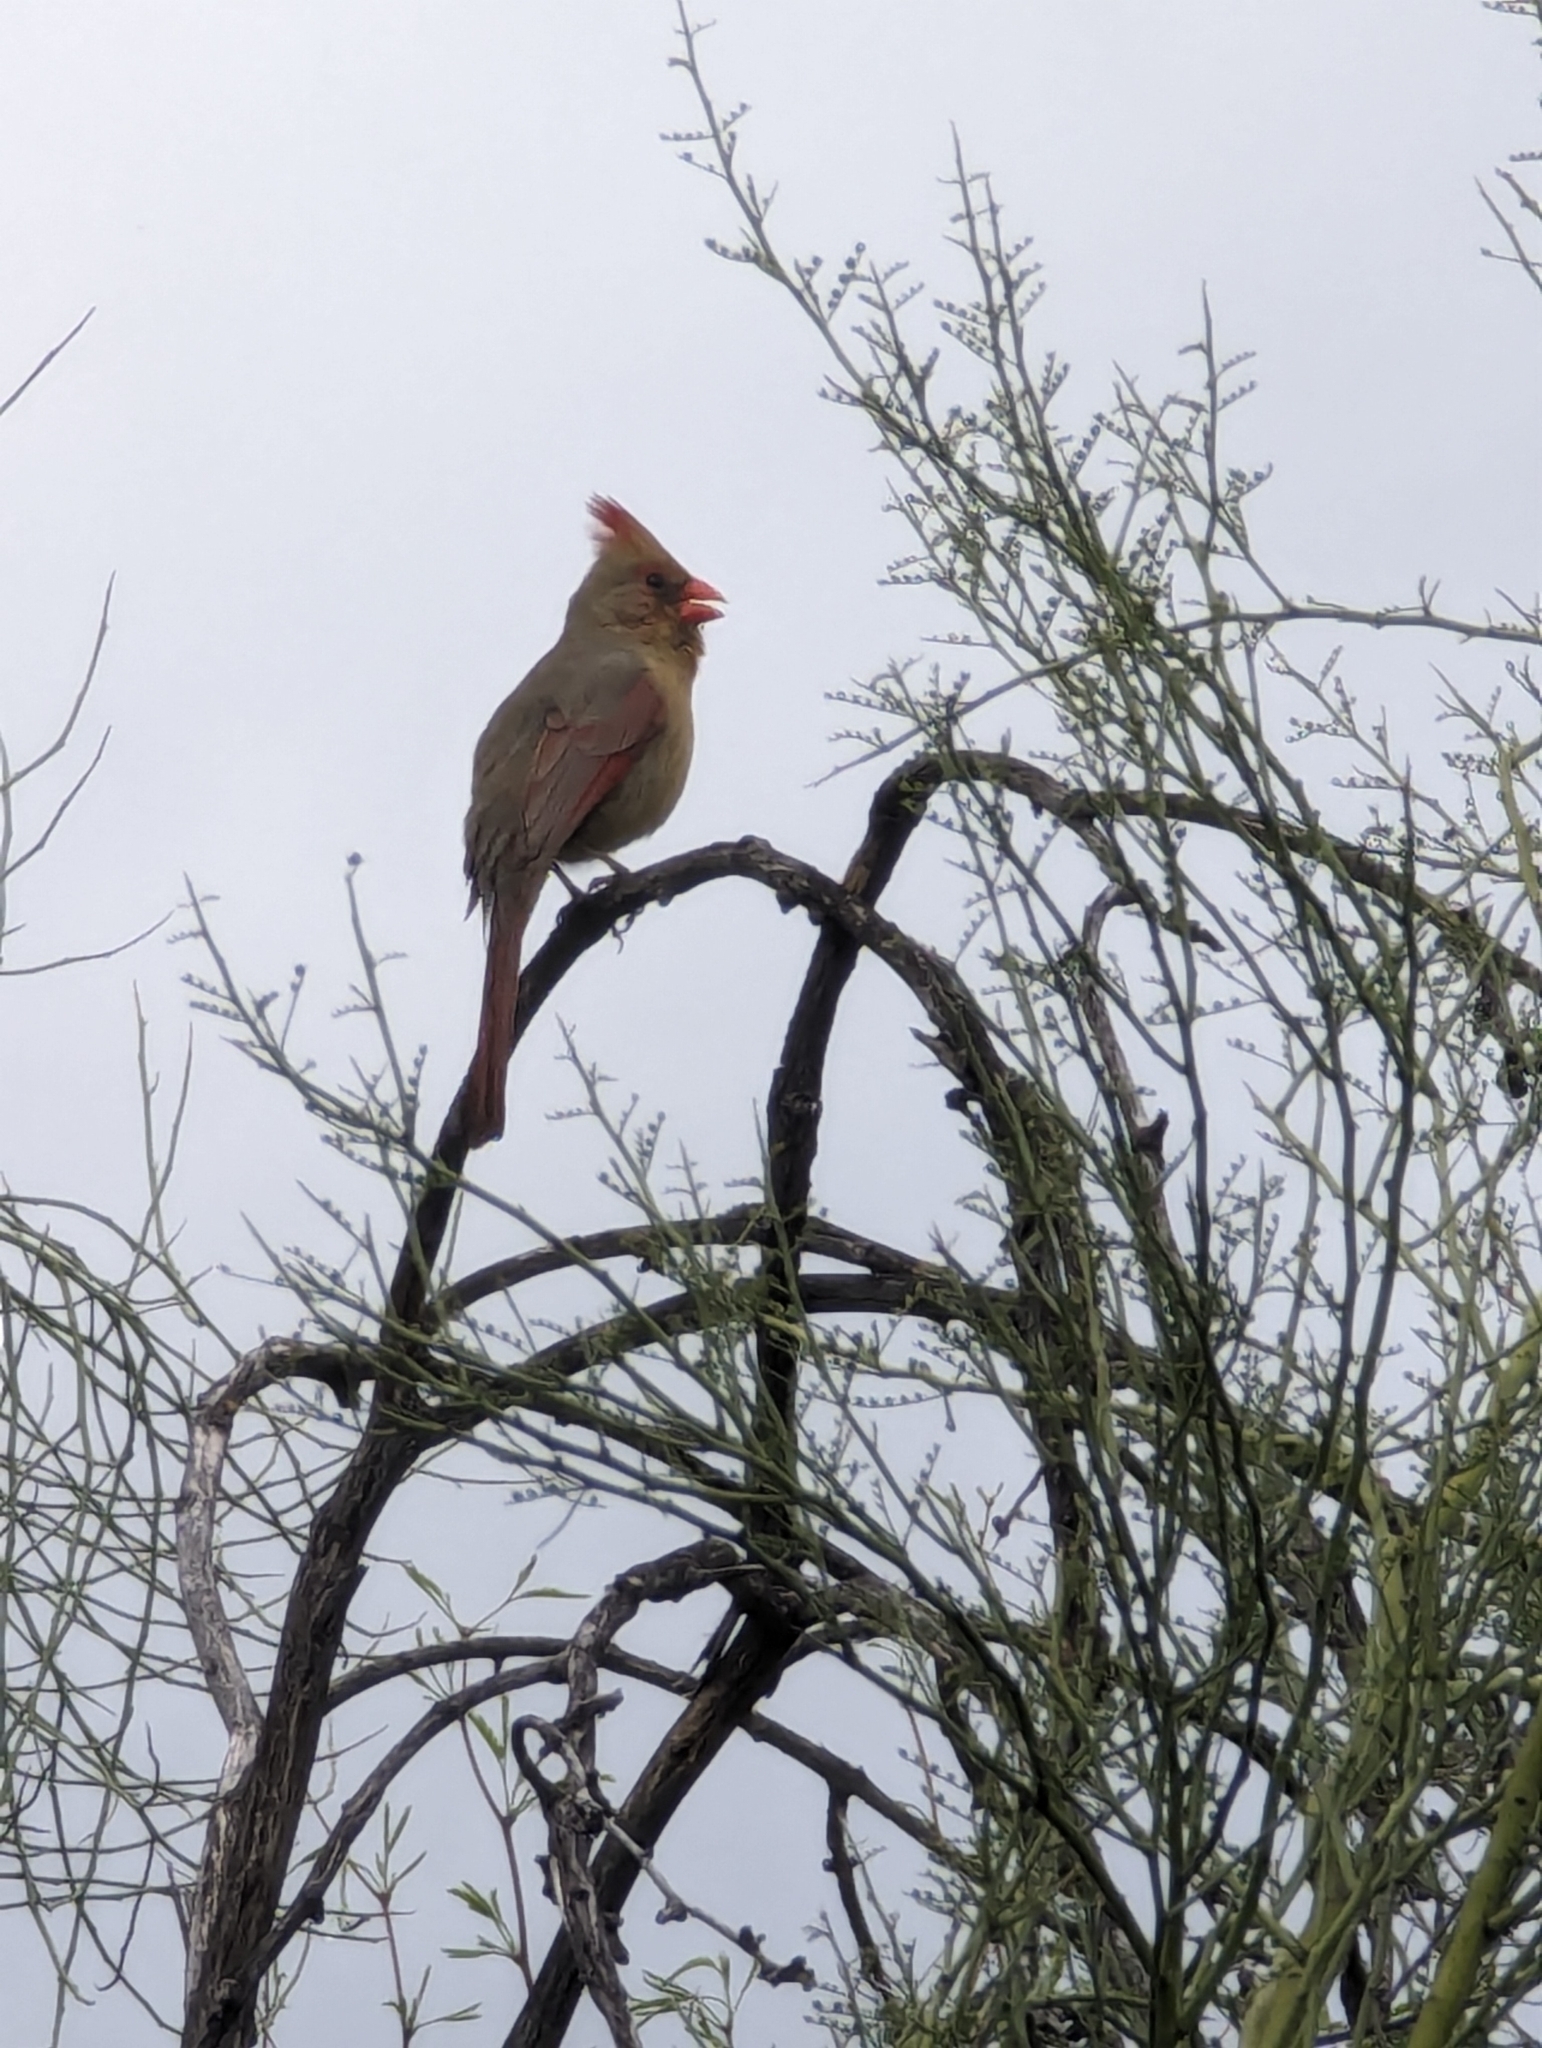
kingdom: Animalia
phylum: Chordata
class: Aves
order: Passeriformes
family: Cardinalidae
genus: Cardinalis
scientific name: Cardinalis cardinalis
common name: Northern cardinal
